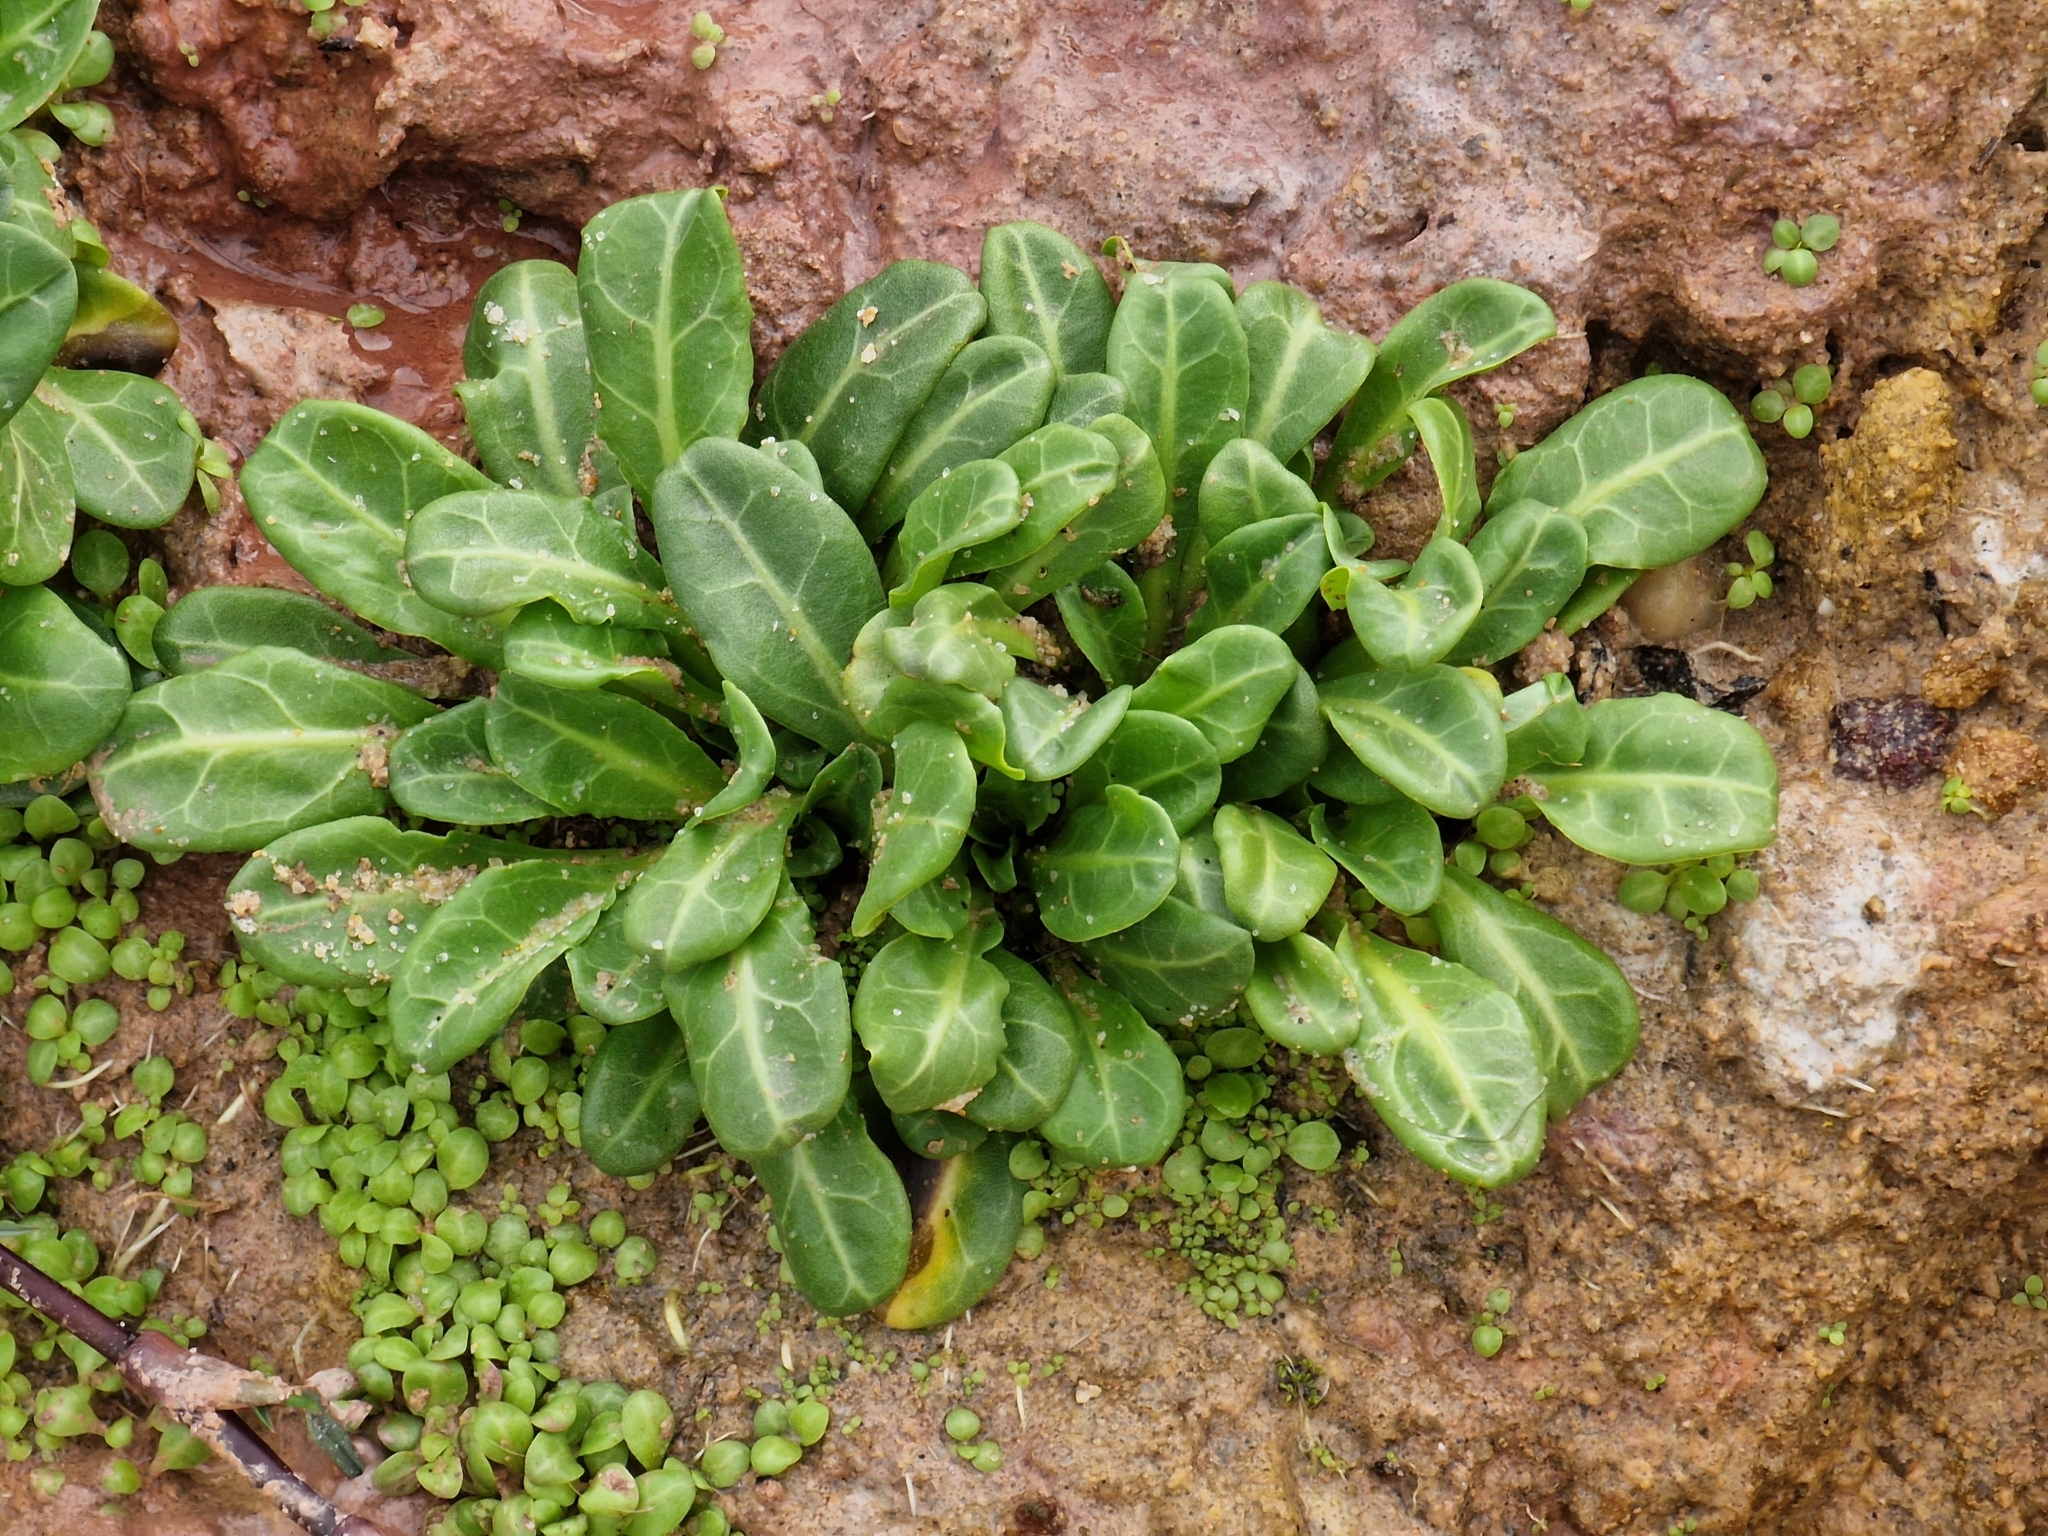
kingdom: Plantae
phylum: Tracheophyta
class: Magnoliopsida
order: Ericales
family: Primulaceae
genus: Samolus
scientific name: Samolus valerandi
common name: Brookweed
